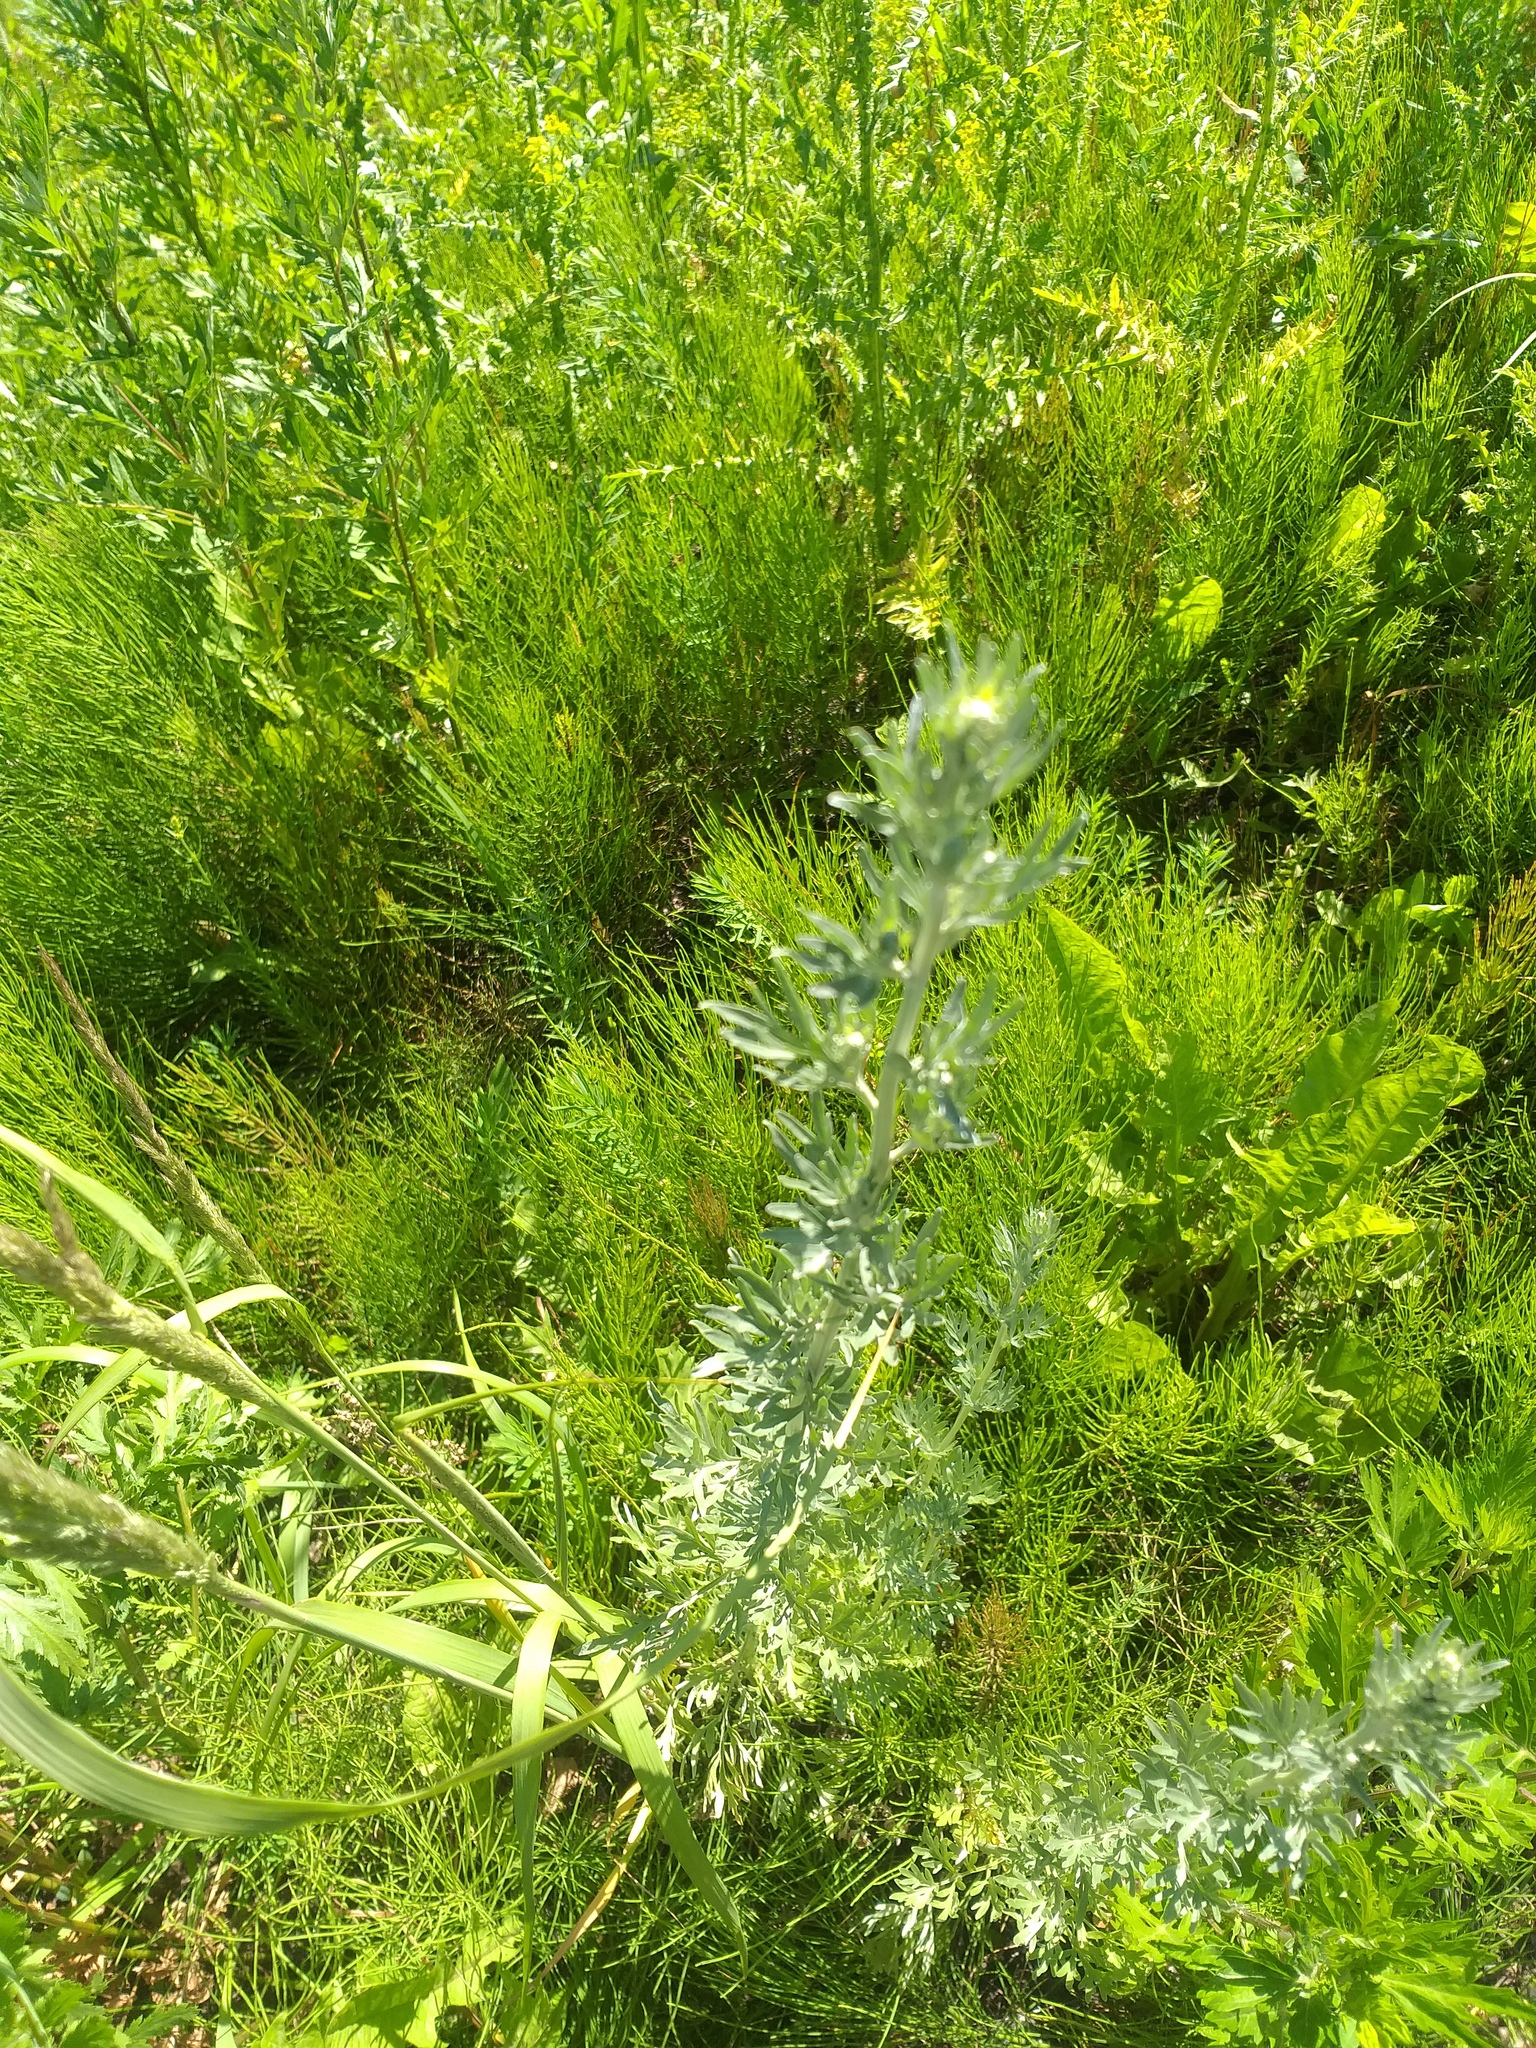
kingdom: Plantae
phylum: Tracheophyta
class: Magnoliopsida
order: Asterales
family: Asteraceae
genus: Artemisia
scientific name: Artemisia absinthium
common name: Wormwood
